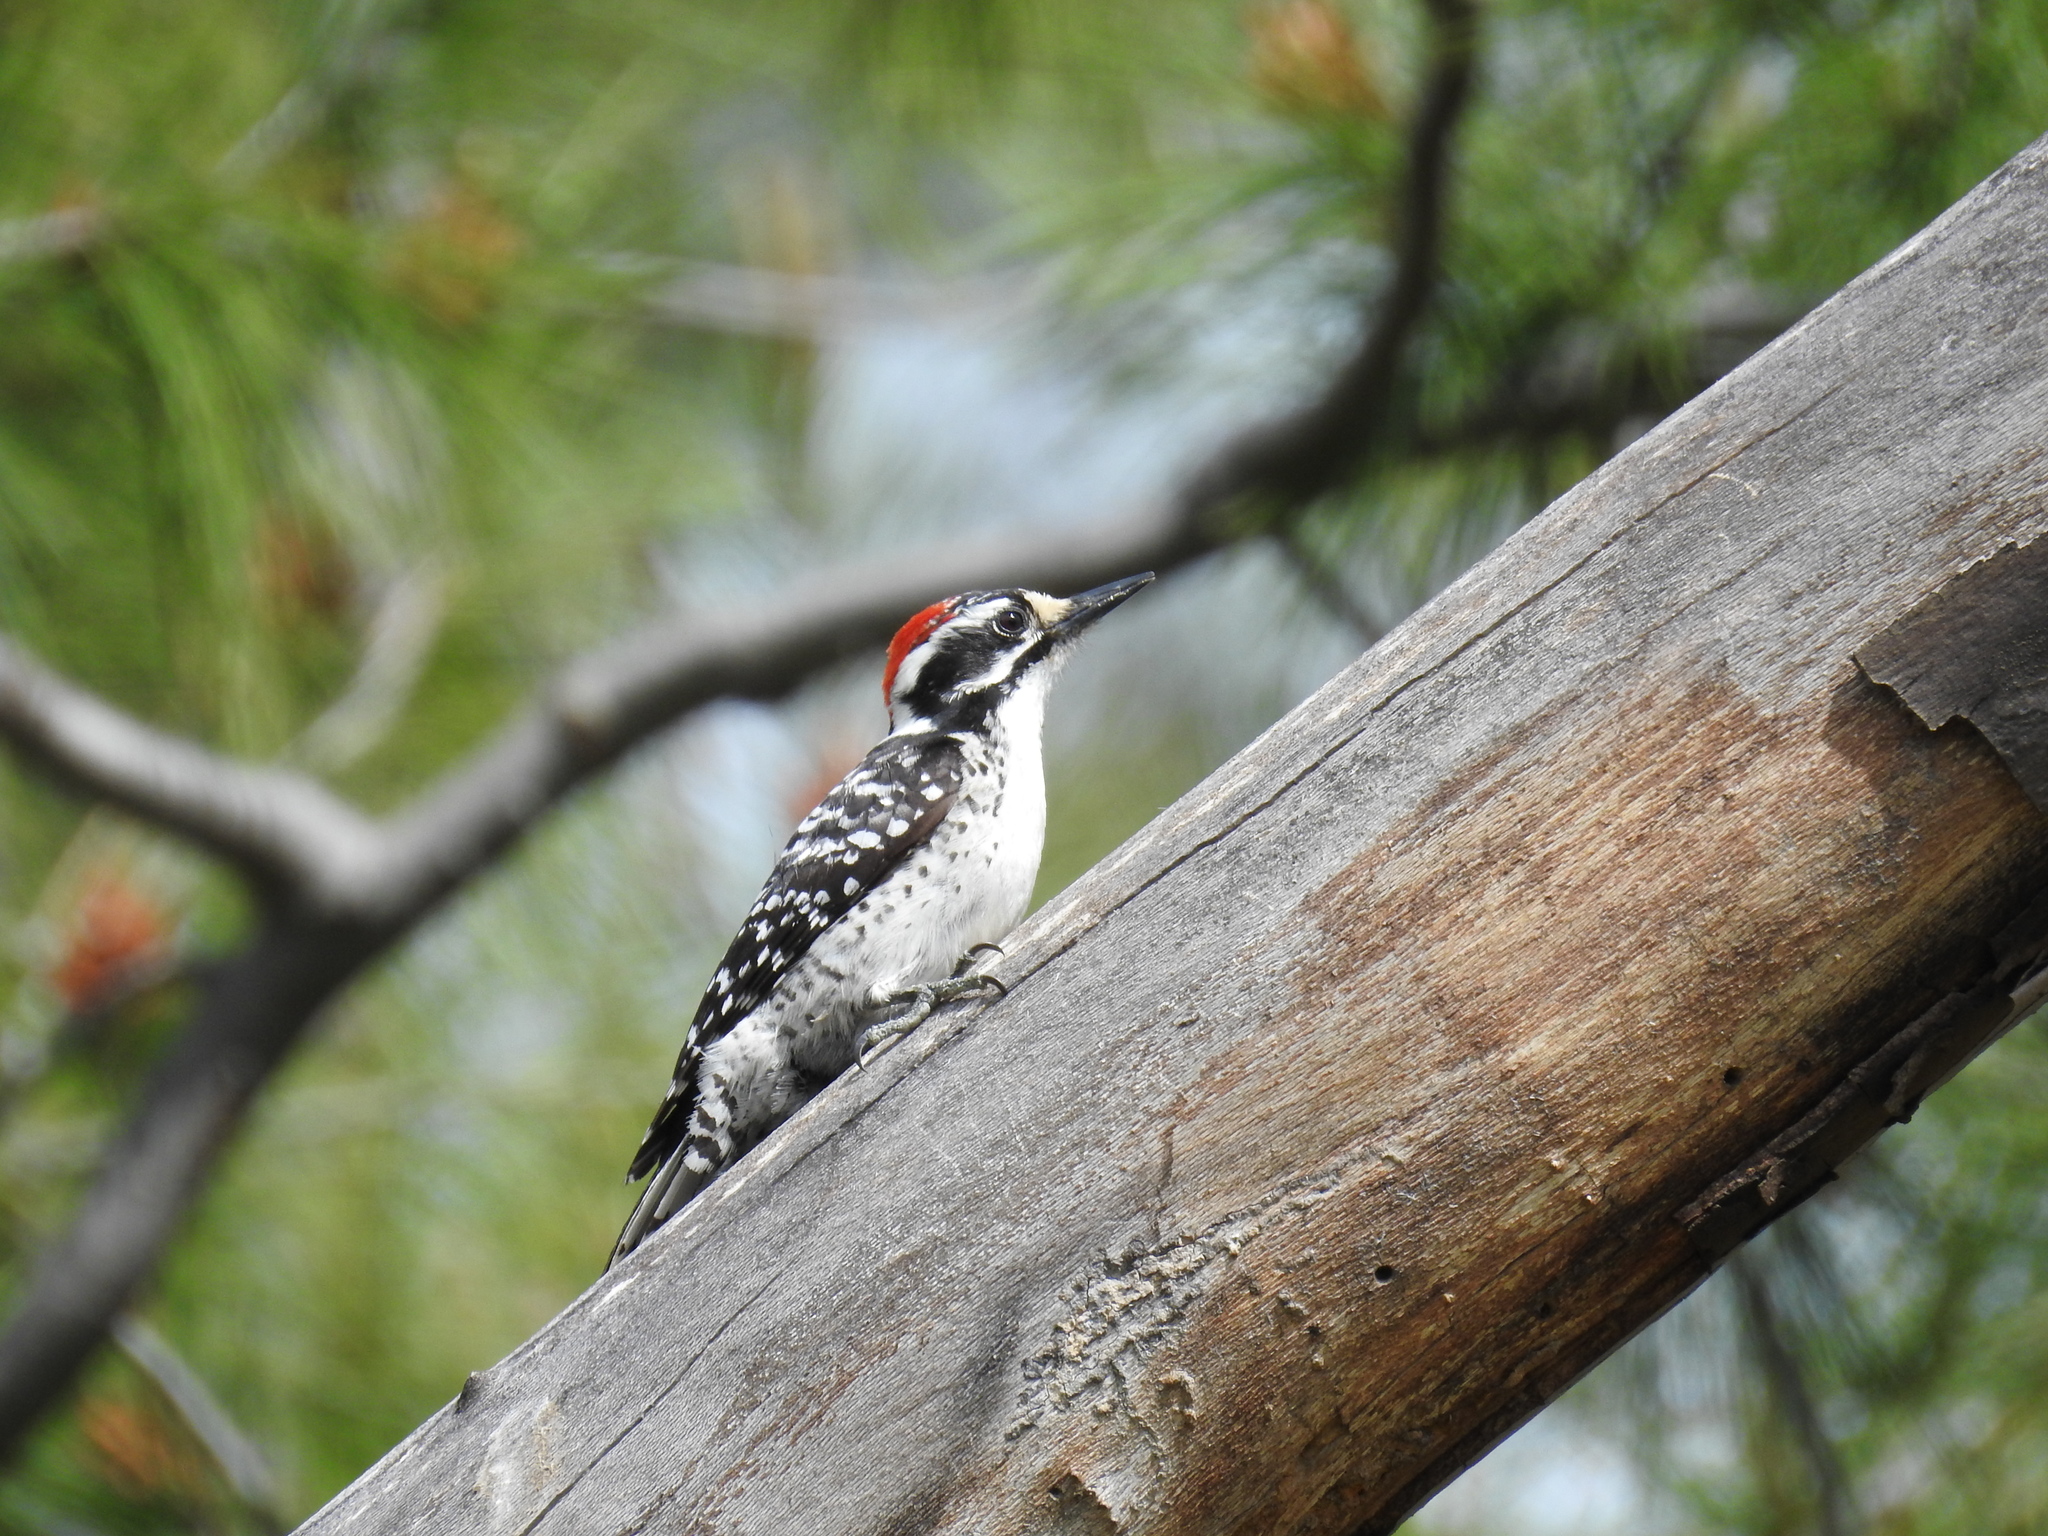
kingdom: Animalia
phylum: Chordata
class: Aves
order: Piciformes
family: Picidae
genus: Dryobates
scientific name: Dryobates nuttallii
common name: Nuttall's woodpecker
